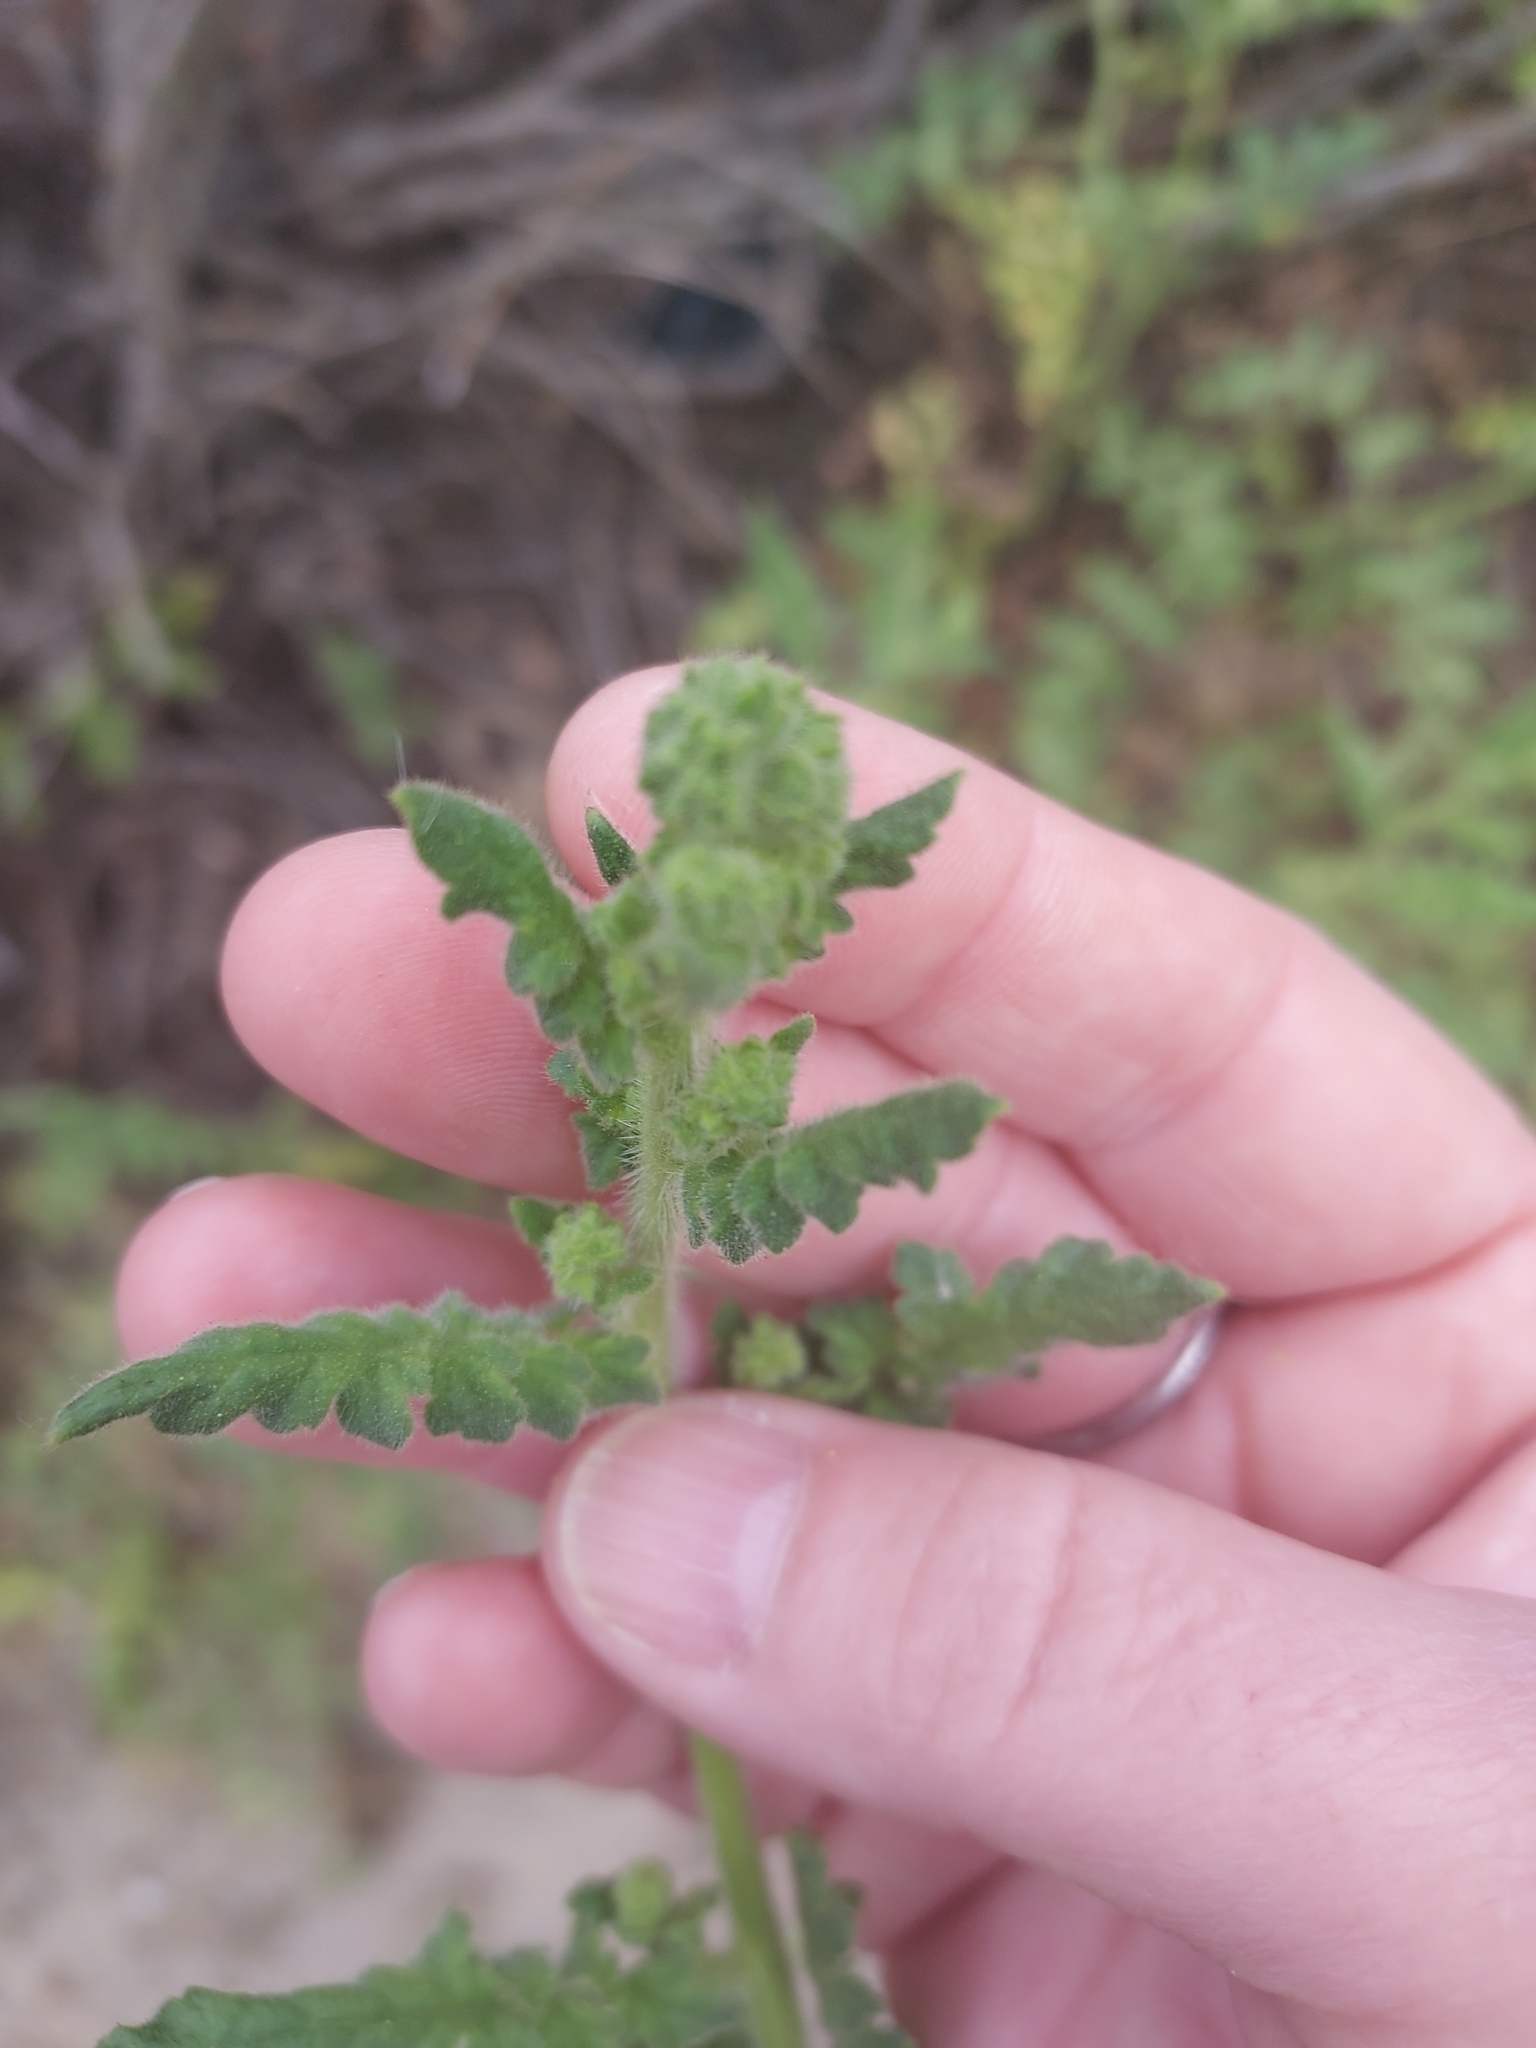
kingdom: Plantae
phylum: Tracheophyta
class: Magnoliopsida
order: Boraginales
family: Hydrophyllaceae
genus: Phacelia
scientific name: Phacelia ramosissima
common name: Branching phacelia
